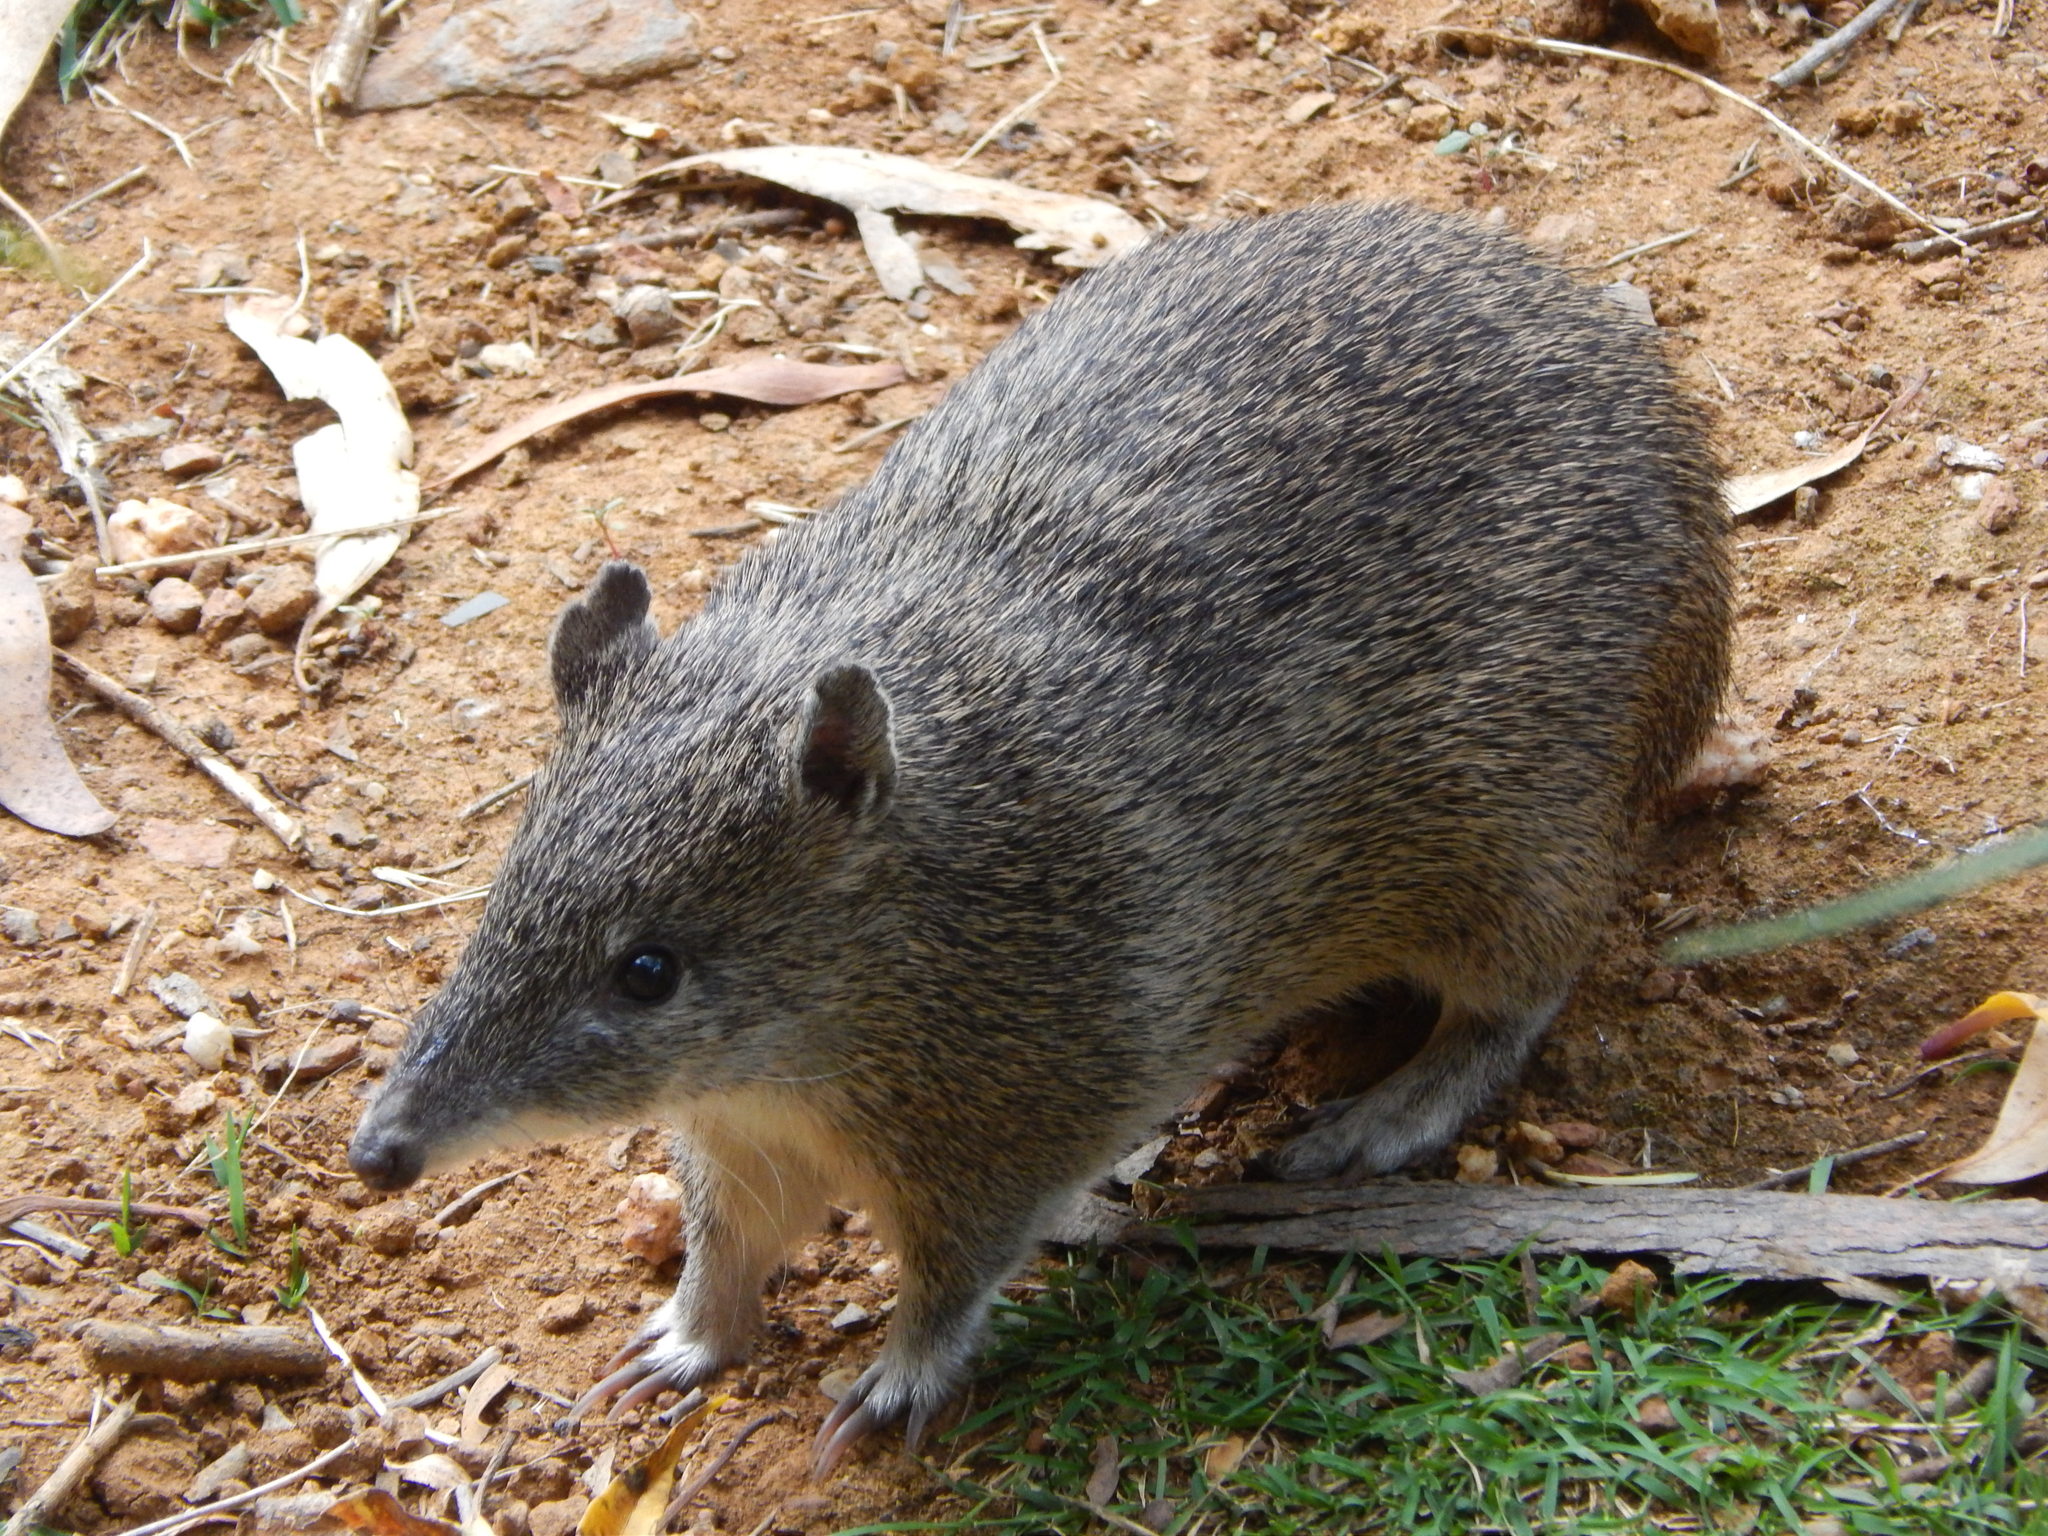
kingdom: Animalia
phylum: Chordata
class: Mammalia
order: Peramelemorphia
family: Peramelidae
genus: Isoodon
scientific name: Isoodon obesulus
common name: Southern brown bandicoot
